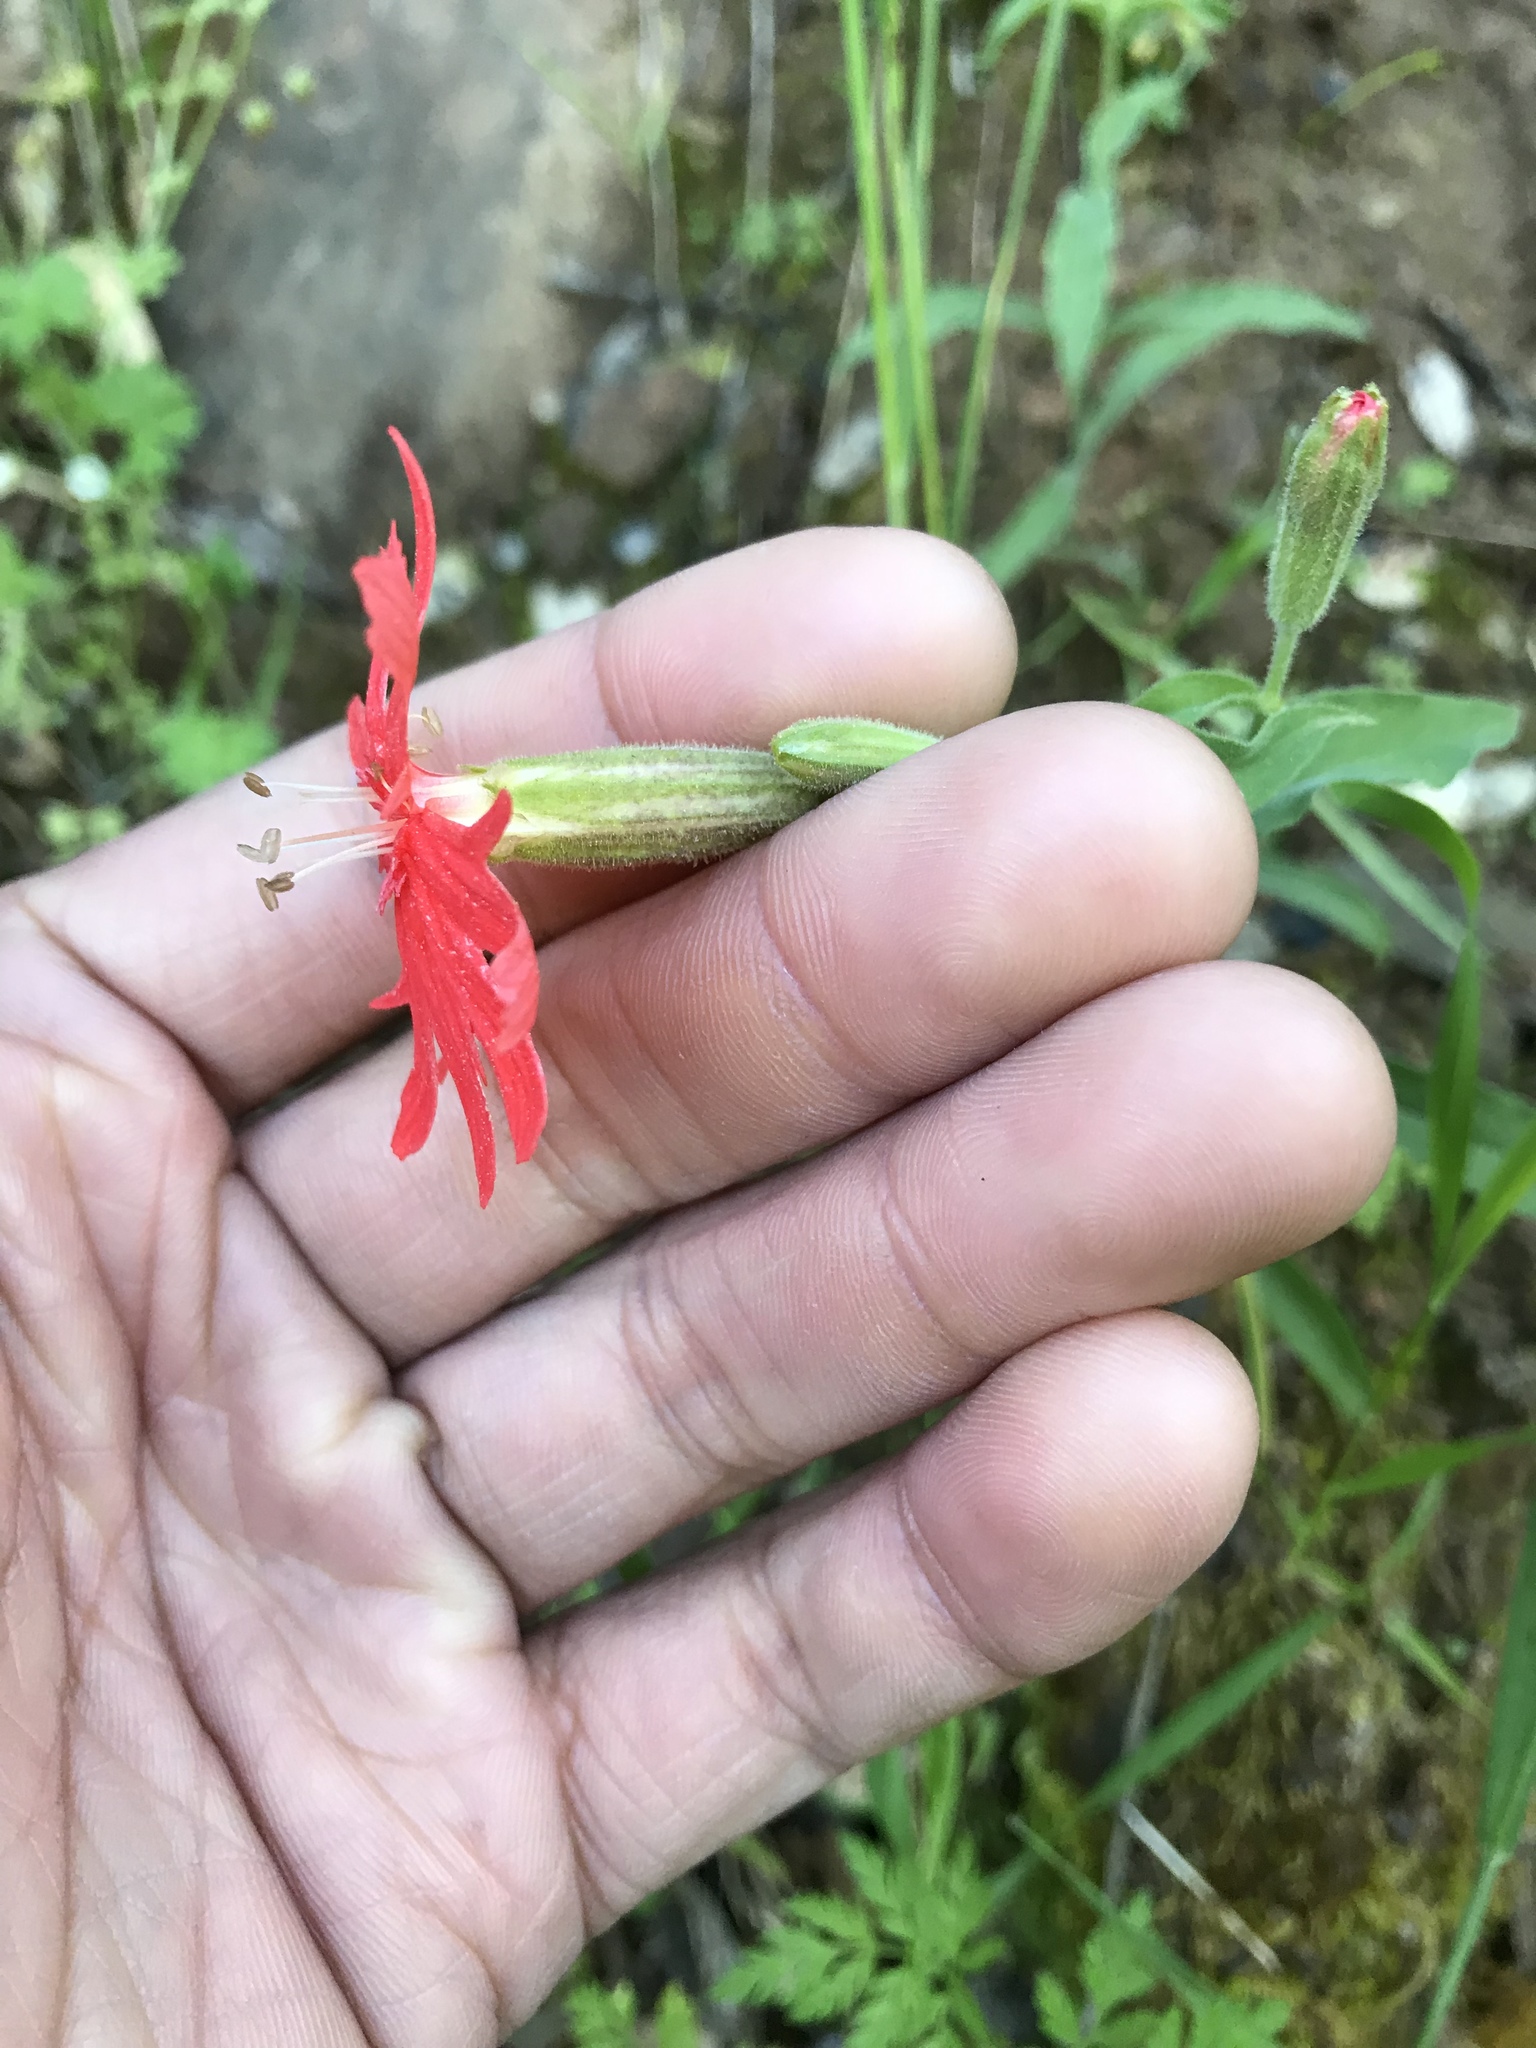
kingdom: Plantae
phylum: Tracheophyta
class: Magnoliopsida
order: Caryophyllales
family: Caryophyllaceae
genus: Silene
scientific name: Silene laciniata
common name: Indian-pink
